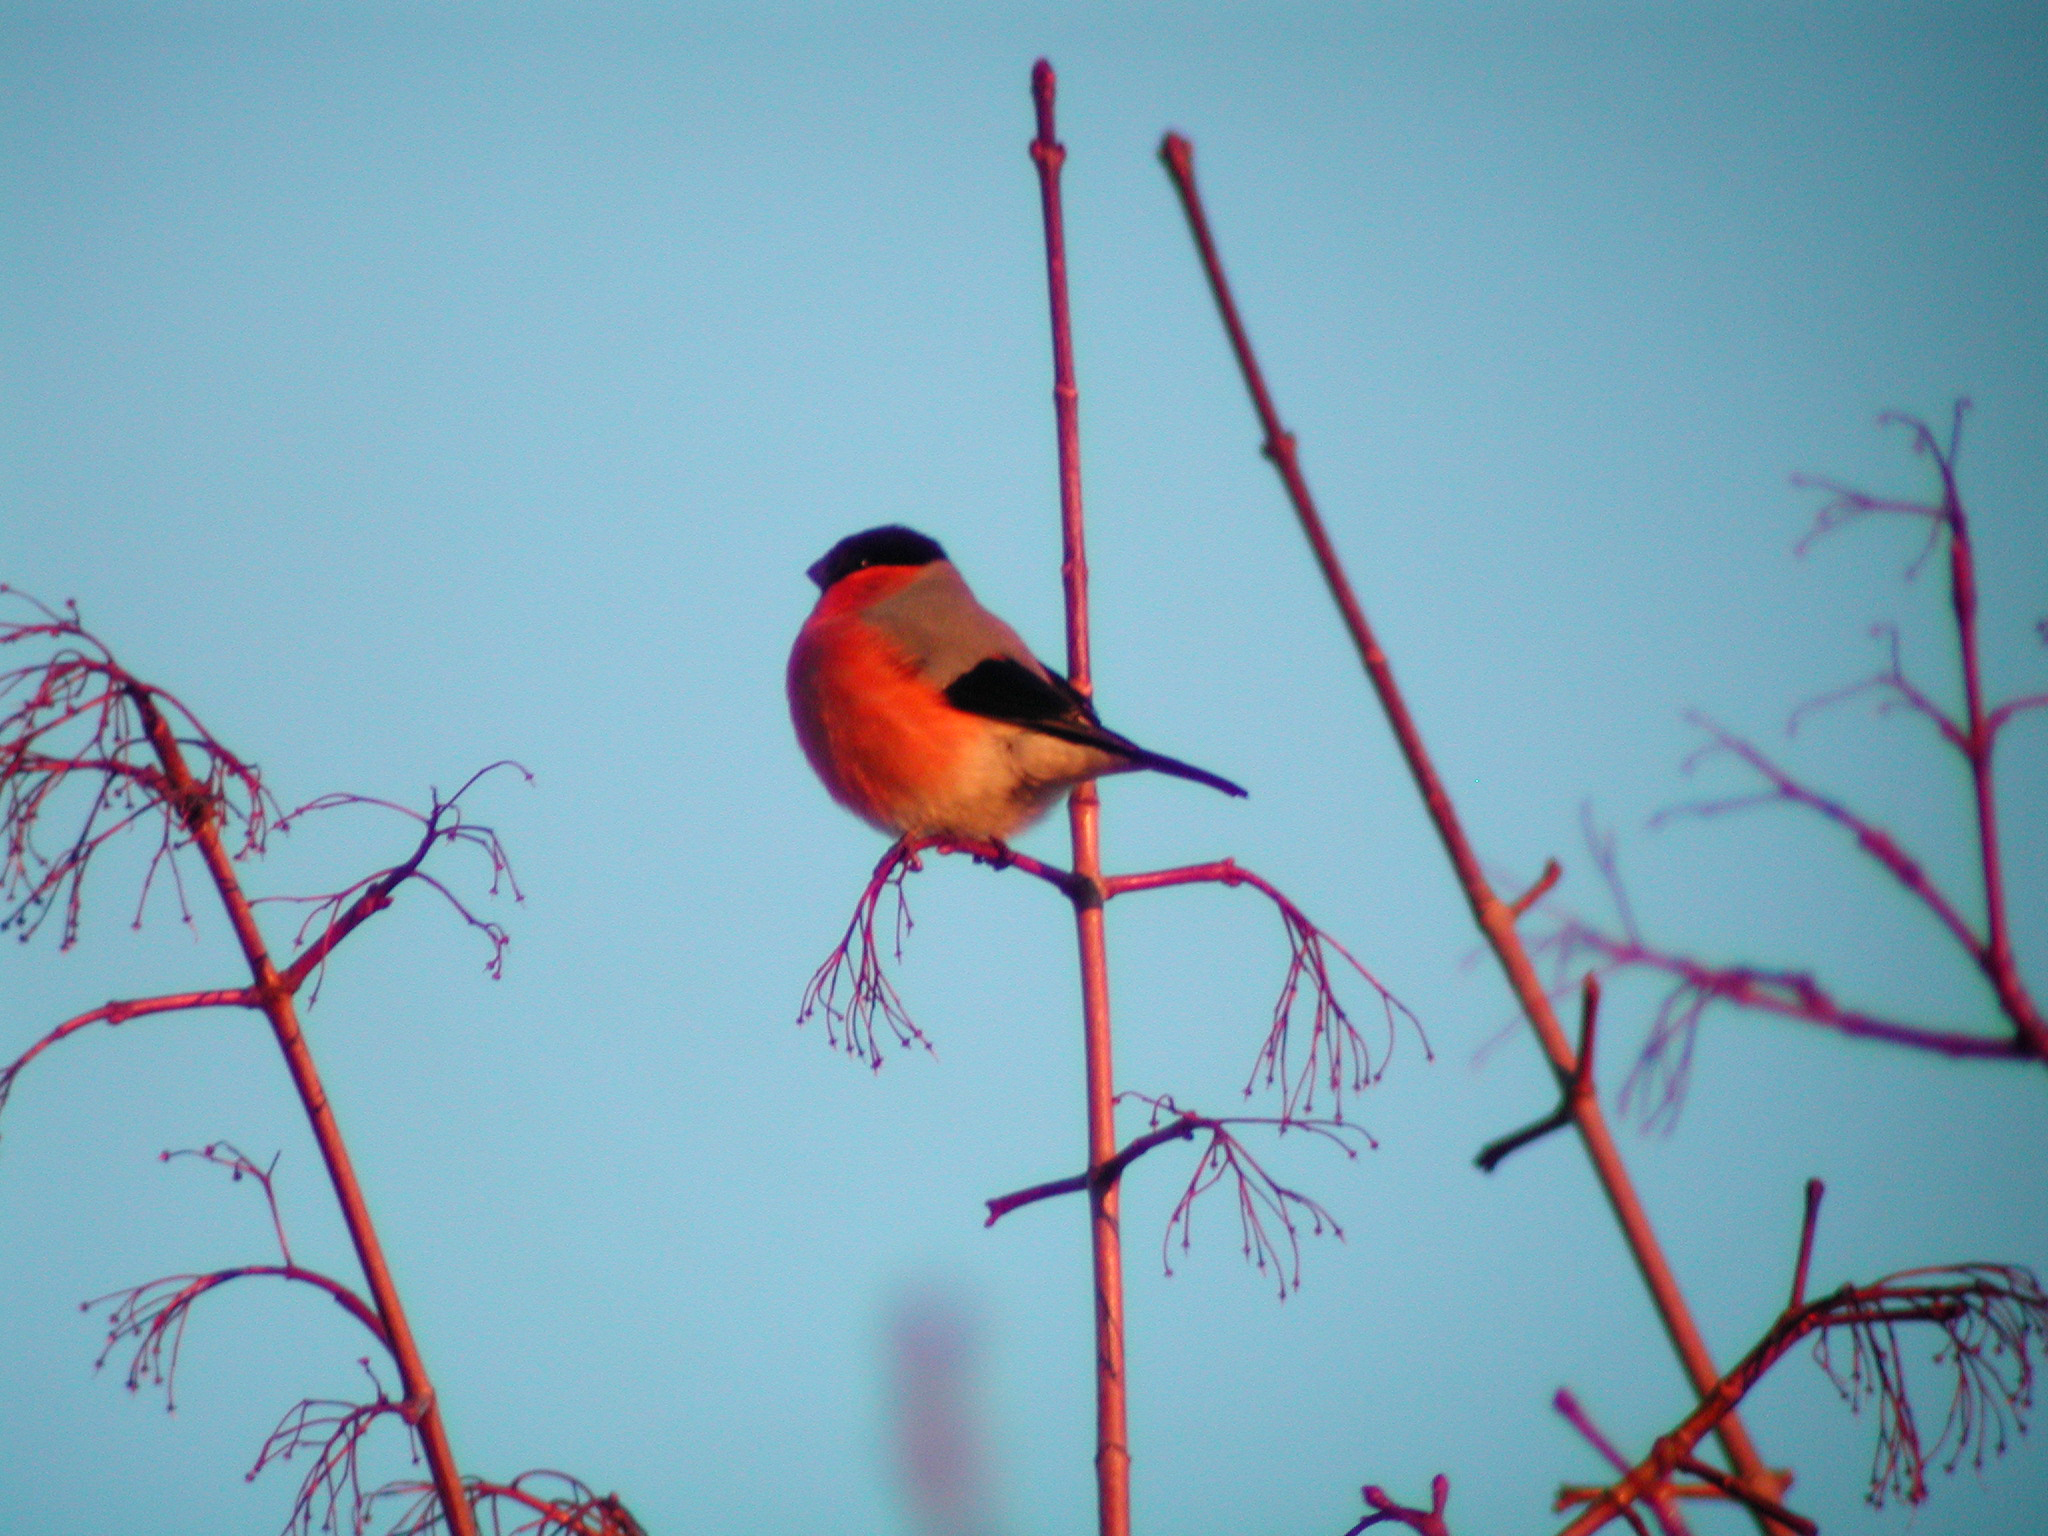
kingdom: Animalia
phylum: Chordata
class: Aves
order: Passeriformes
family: Fringillidae
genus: Pyrrhula
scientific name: Pyrrhula pyrrhula
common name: Eurasian bullfinch
